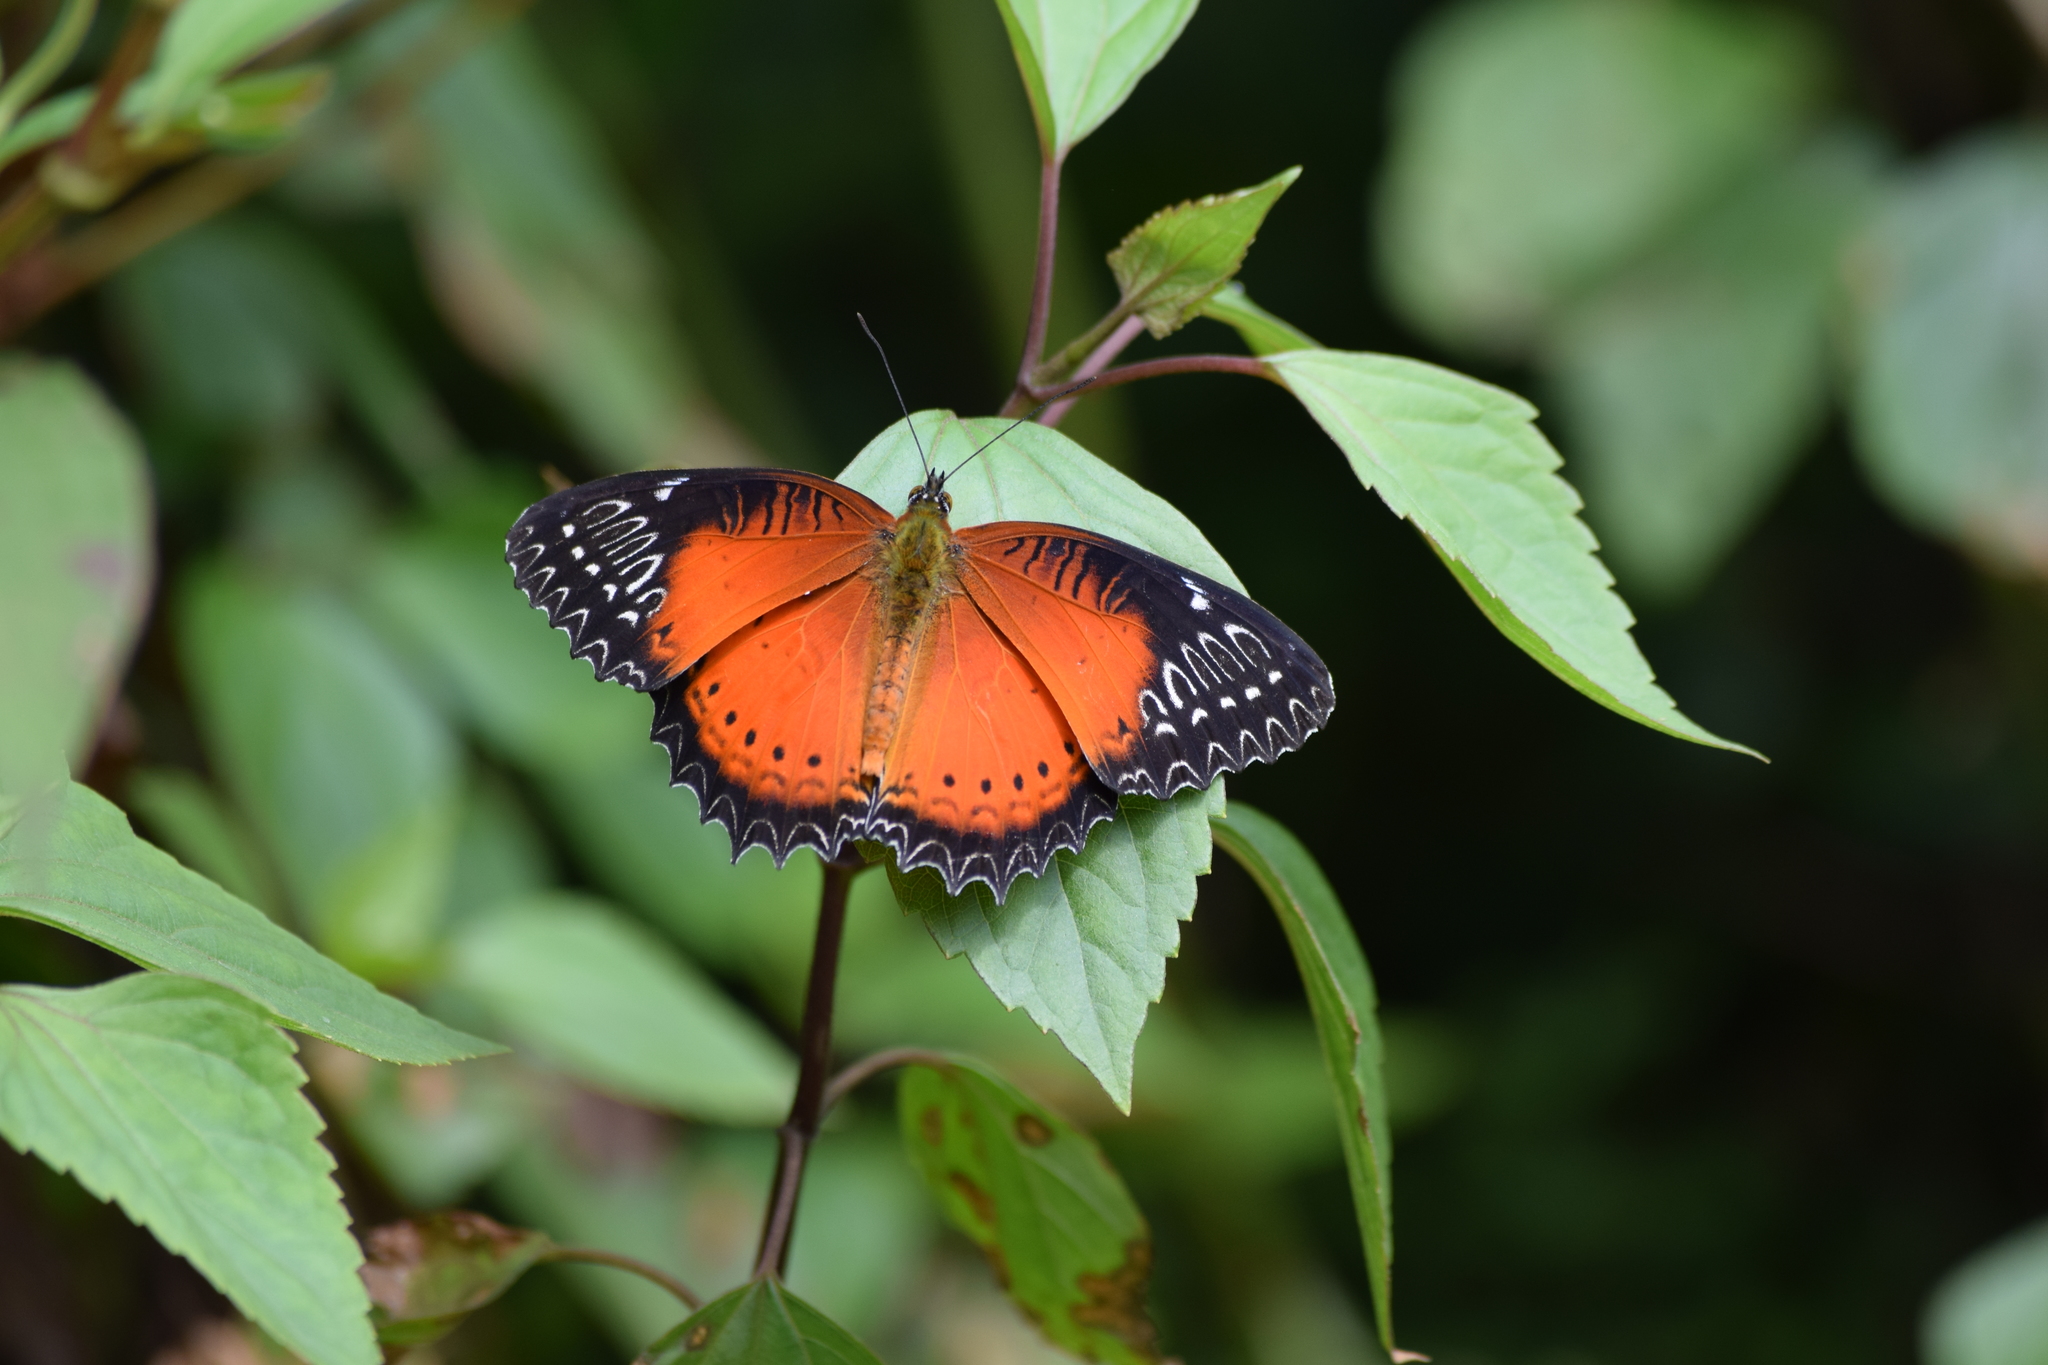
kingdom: Animalia
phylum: Arthropoda
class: Insecta
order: Lepidoptera
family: Nymphalidae
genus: Cethosia
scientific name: Cethosia biblis
